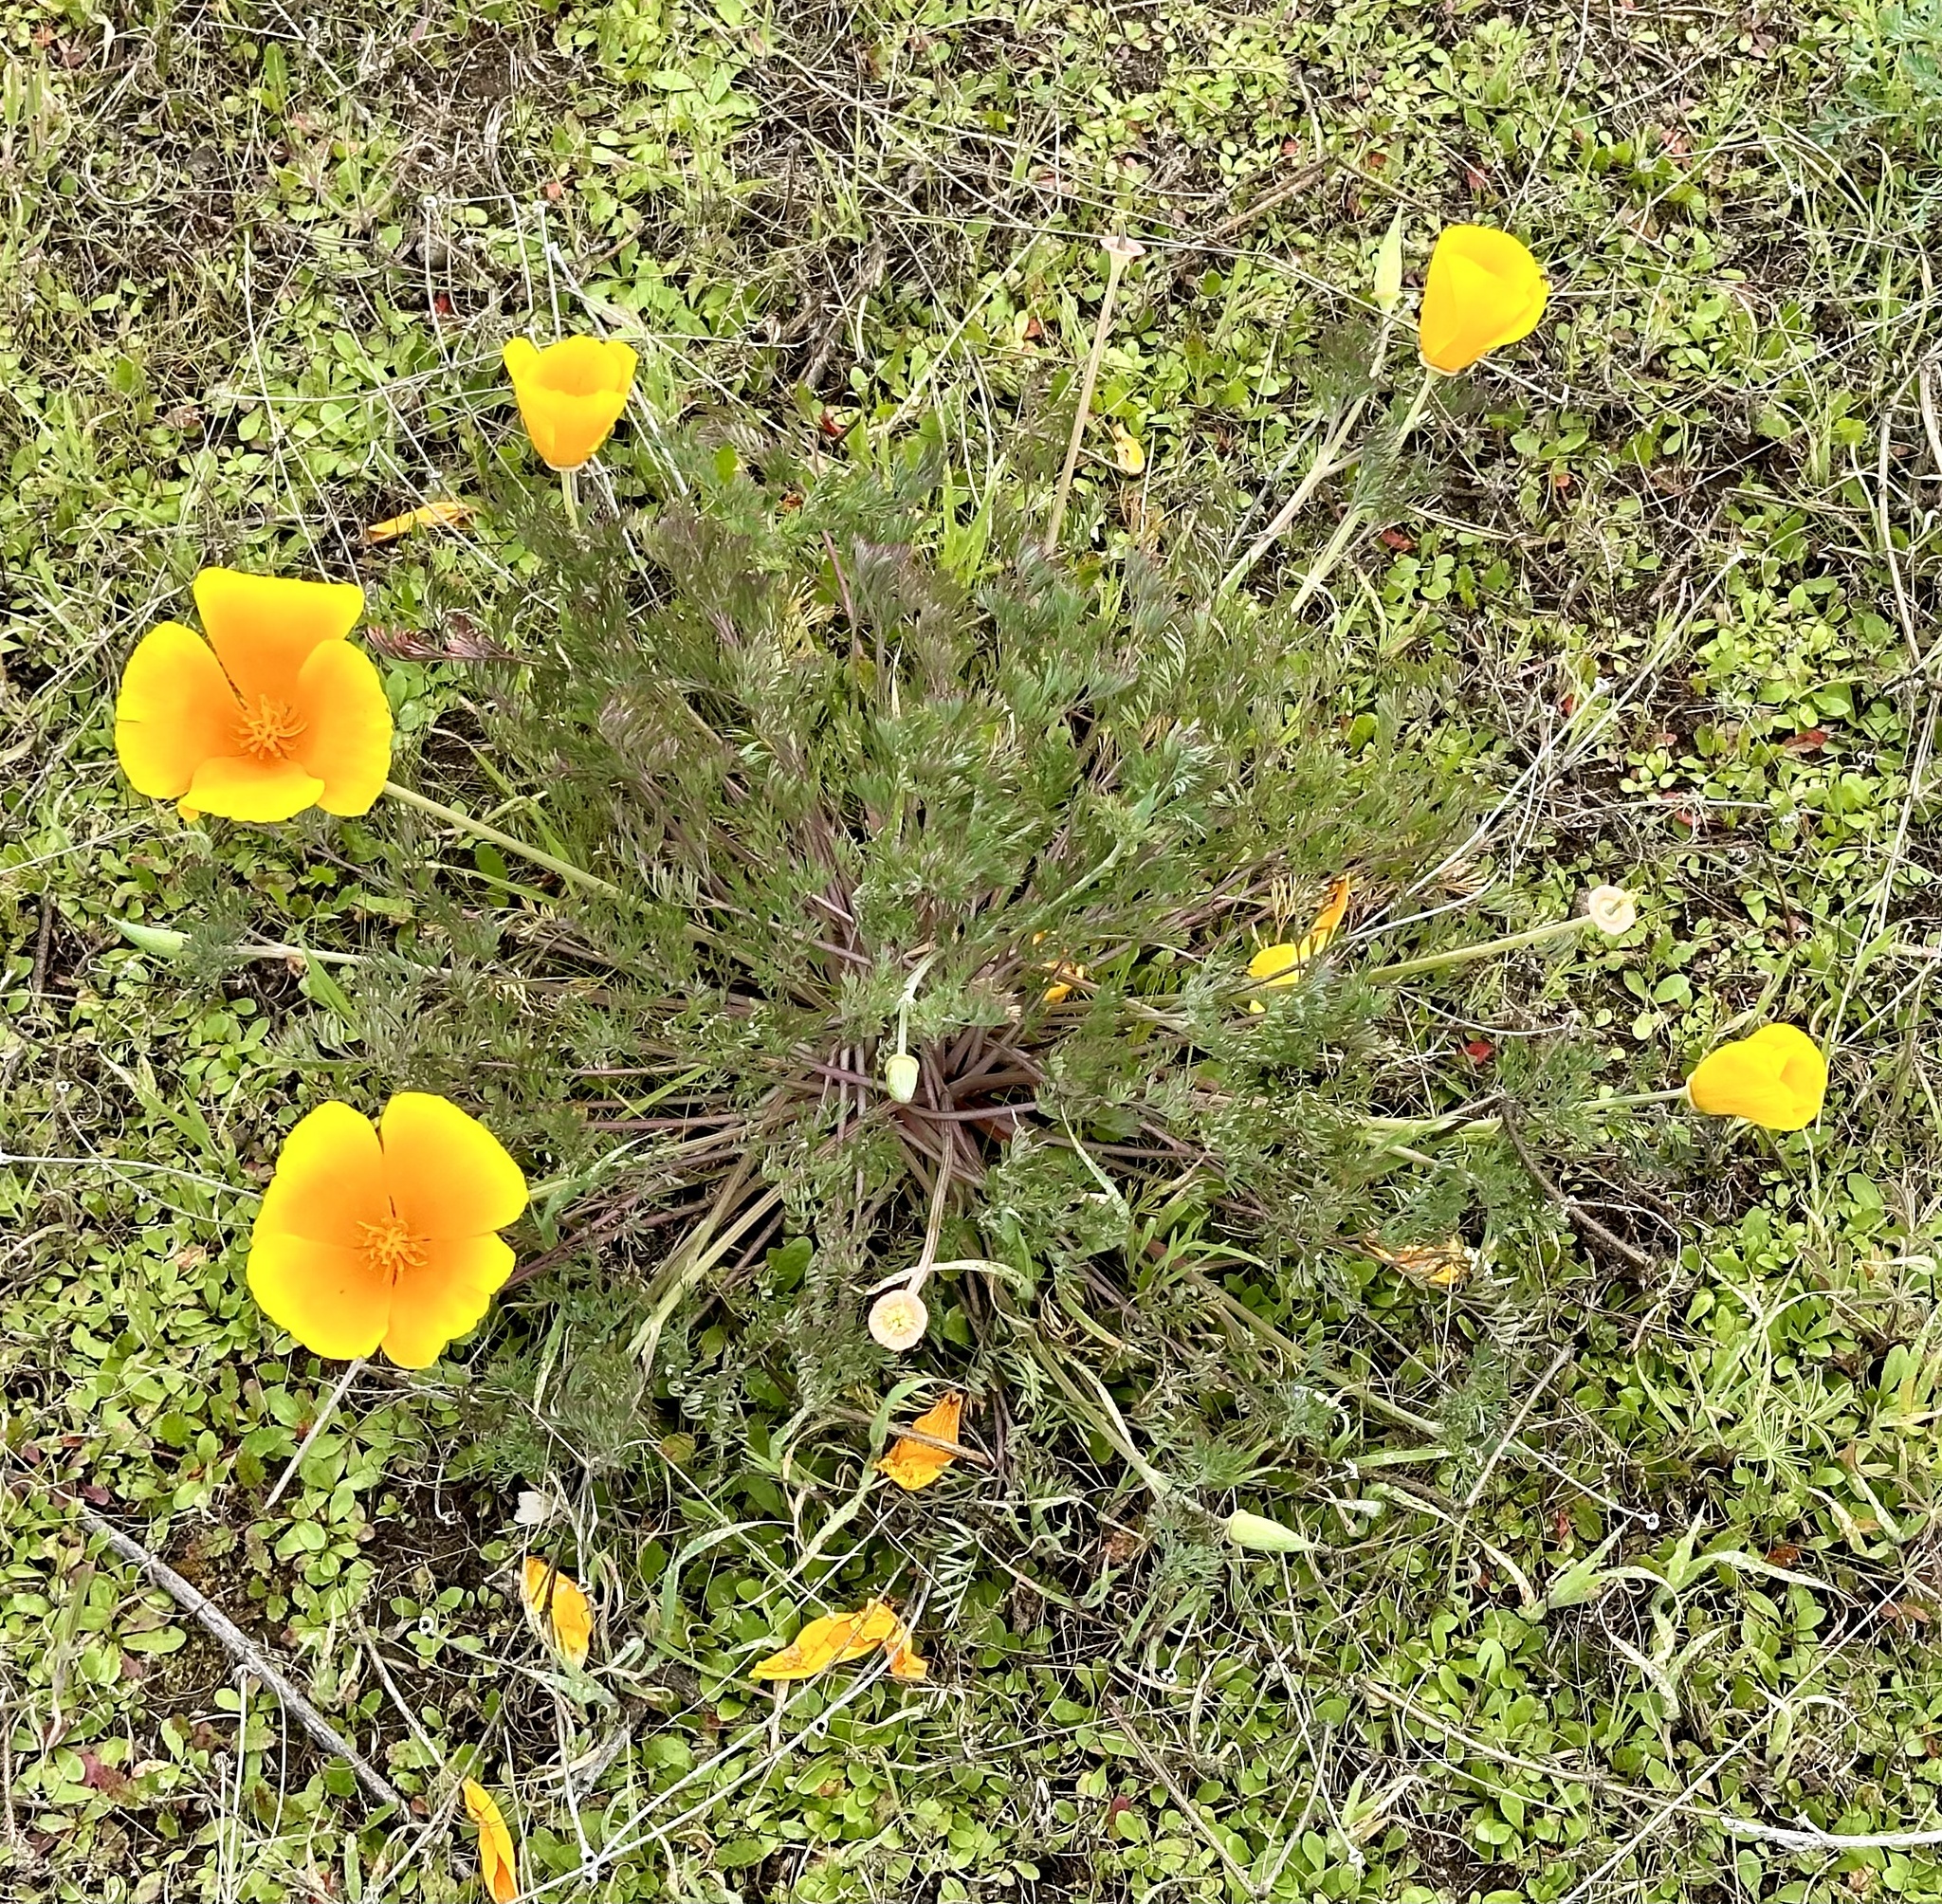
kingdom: Plantae
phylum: Tracheophyta
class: Magnoliopsida
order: Ranunculales
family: Papaveraceae
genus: Eschscholzia
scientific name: Eschscholzia californica
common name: California poppy
